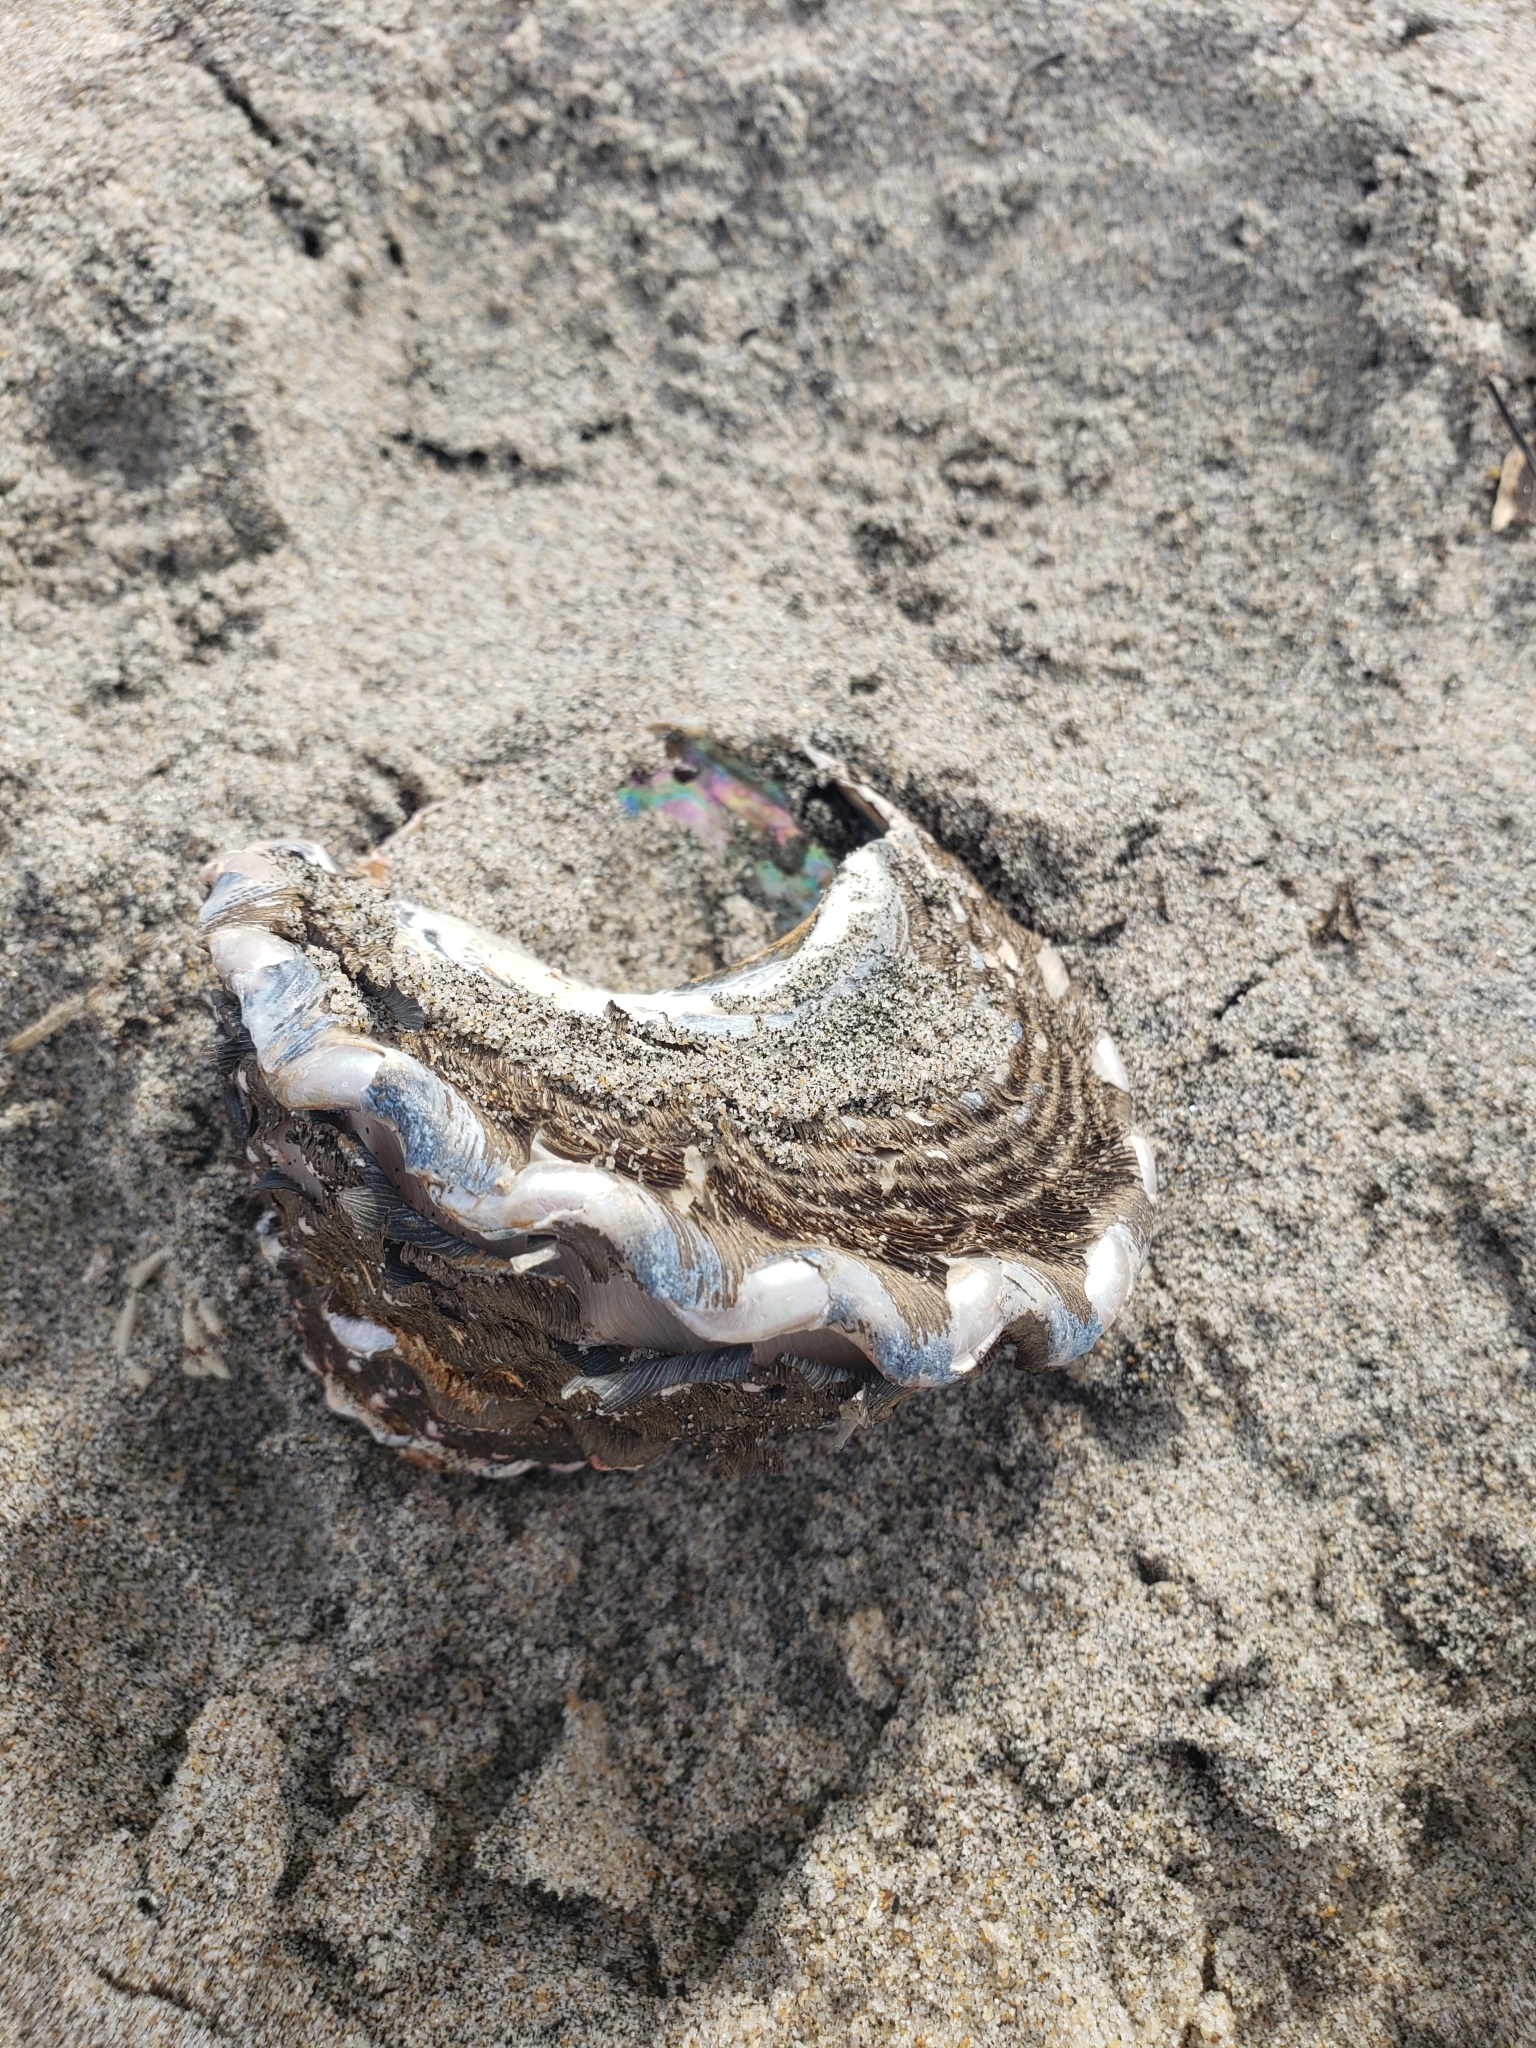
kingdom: Animalia
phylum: Mollusca
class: Gastropoda
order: Trochida
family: Turbinidae
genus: Megastraea
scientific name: Megastraea undosa
